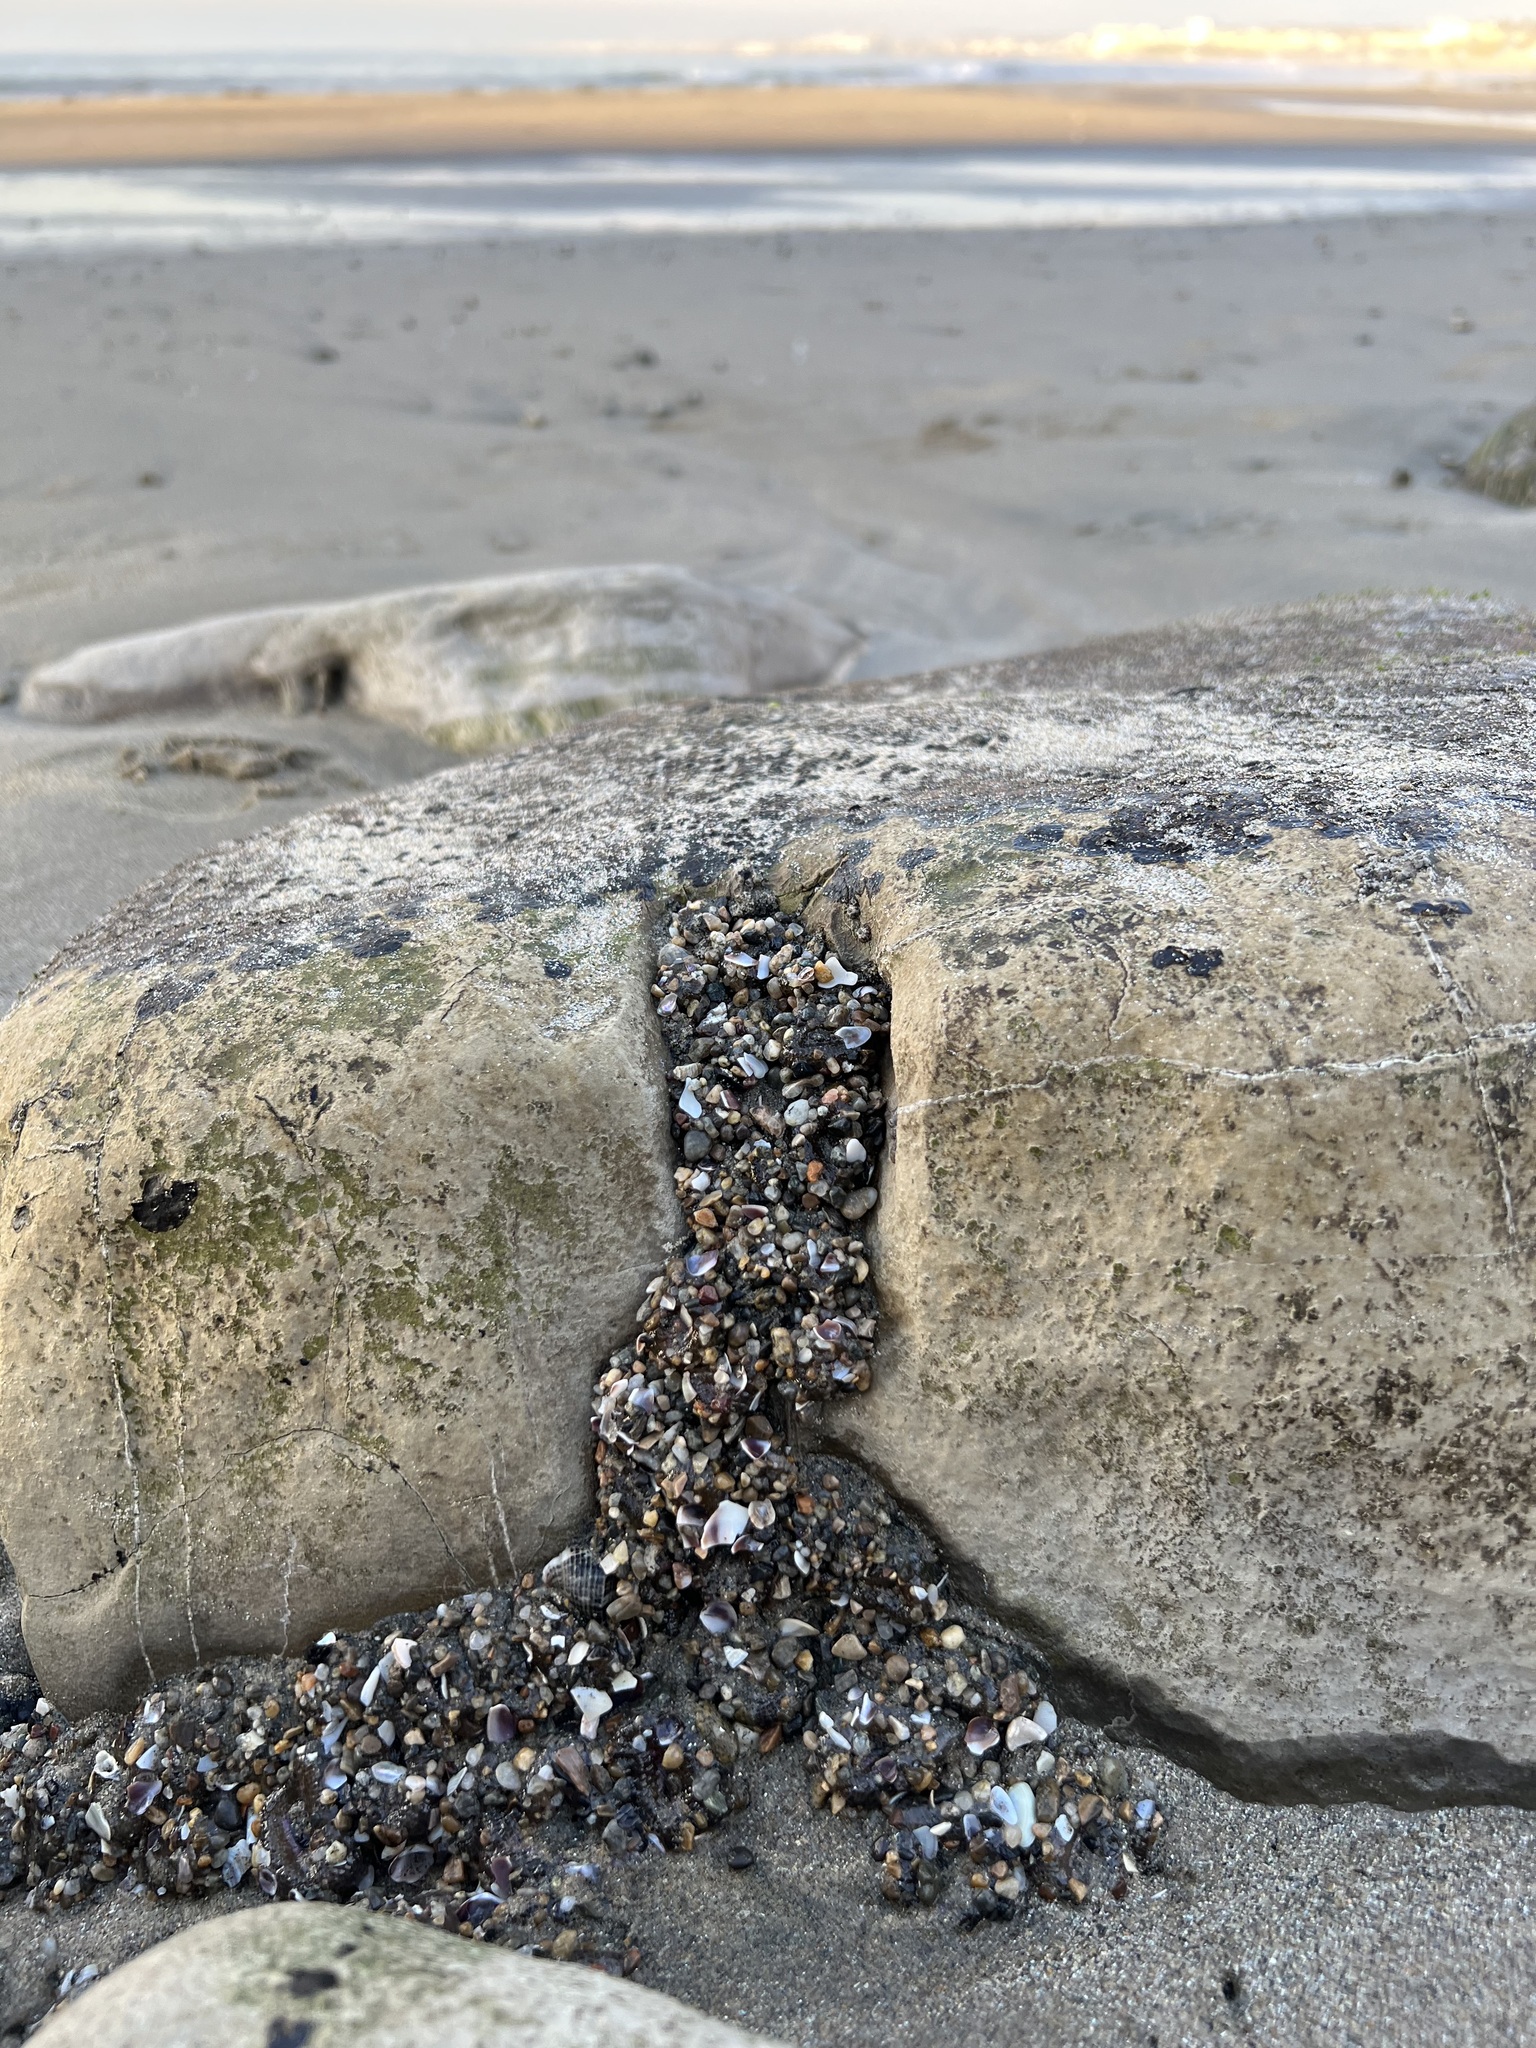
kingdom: Animalia
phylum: Cnidaria
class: Anthozoa
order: Actiniaria
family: Actiniidae
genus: Anthopleura
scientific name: Anthopleura elegantissima
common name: Clonal anemone
